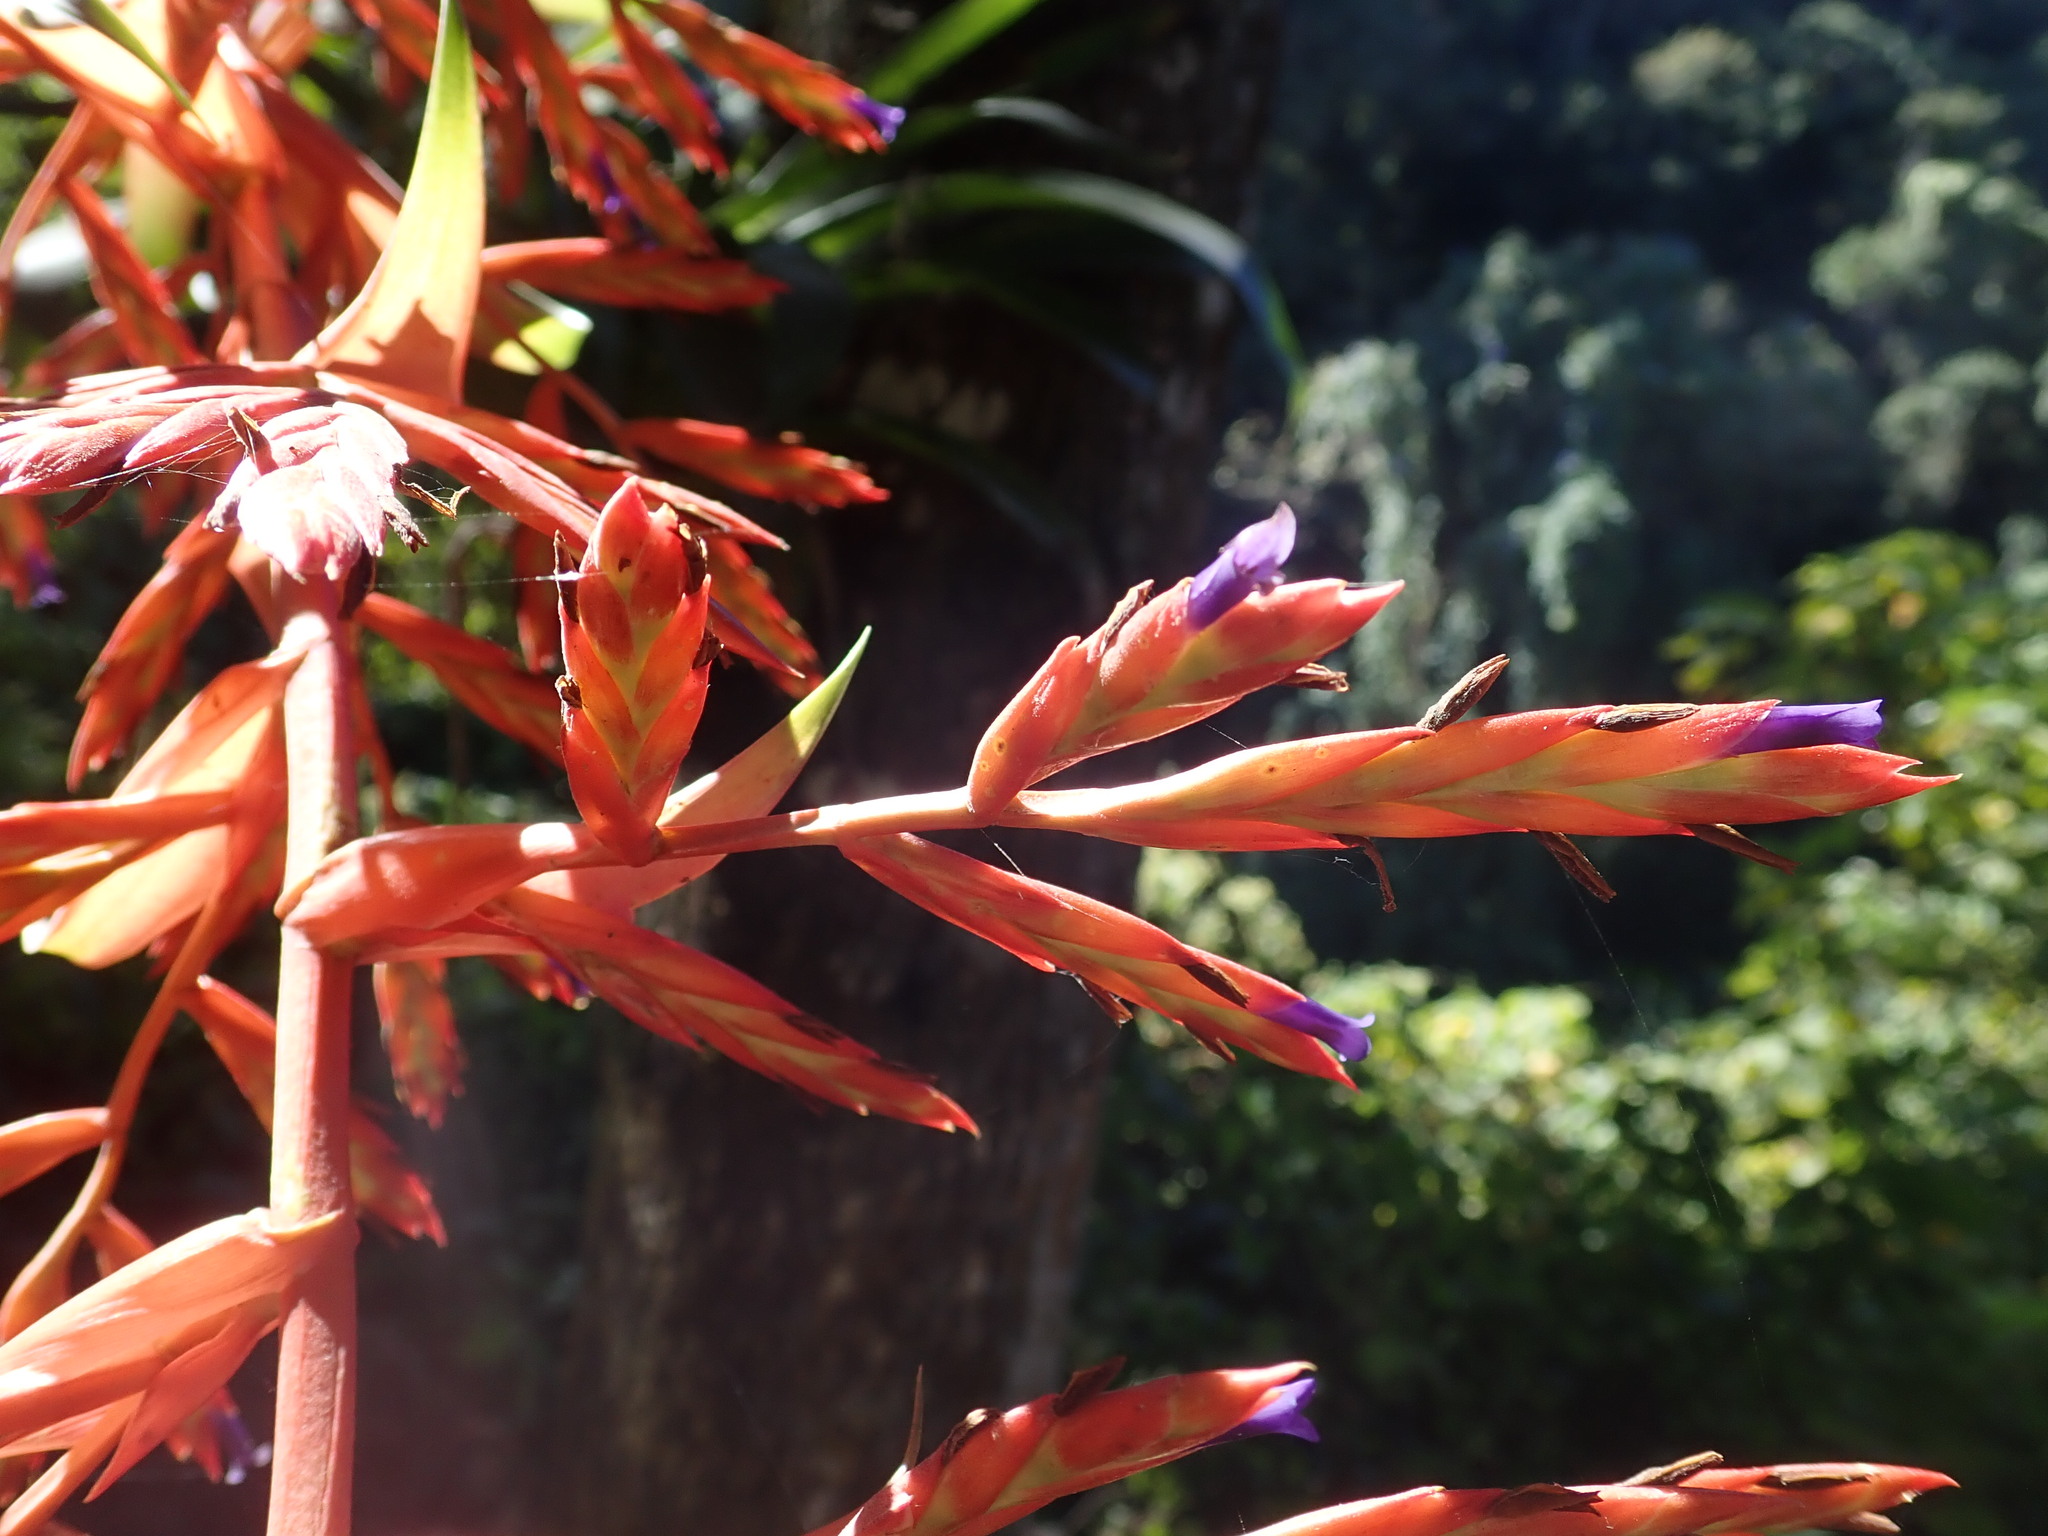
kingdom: Plantae
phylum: Tracheophyta
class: Liliopsida
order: Poales
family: Bromeliaceae
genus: Tillandsia
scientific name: Tillandsia guatemalensis
